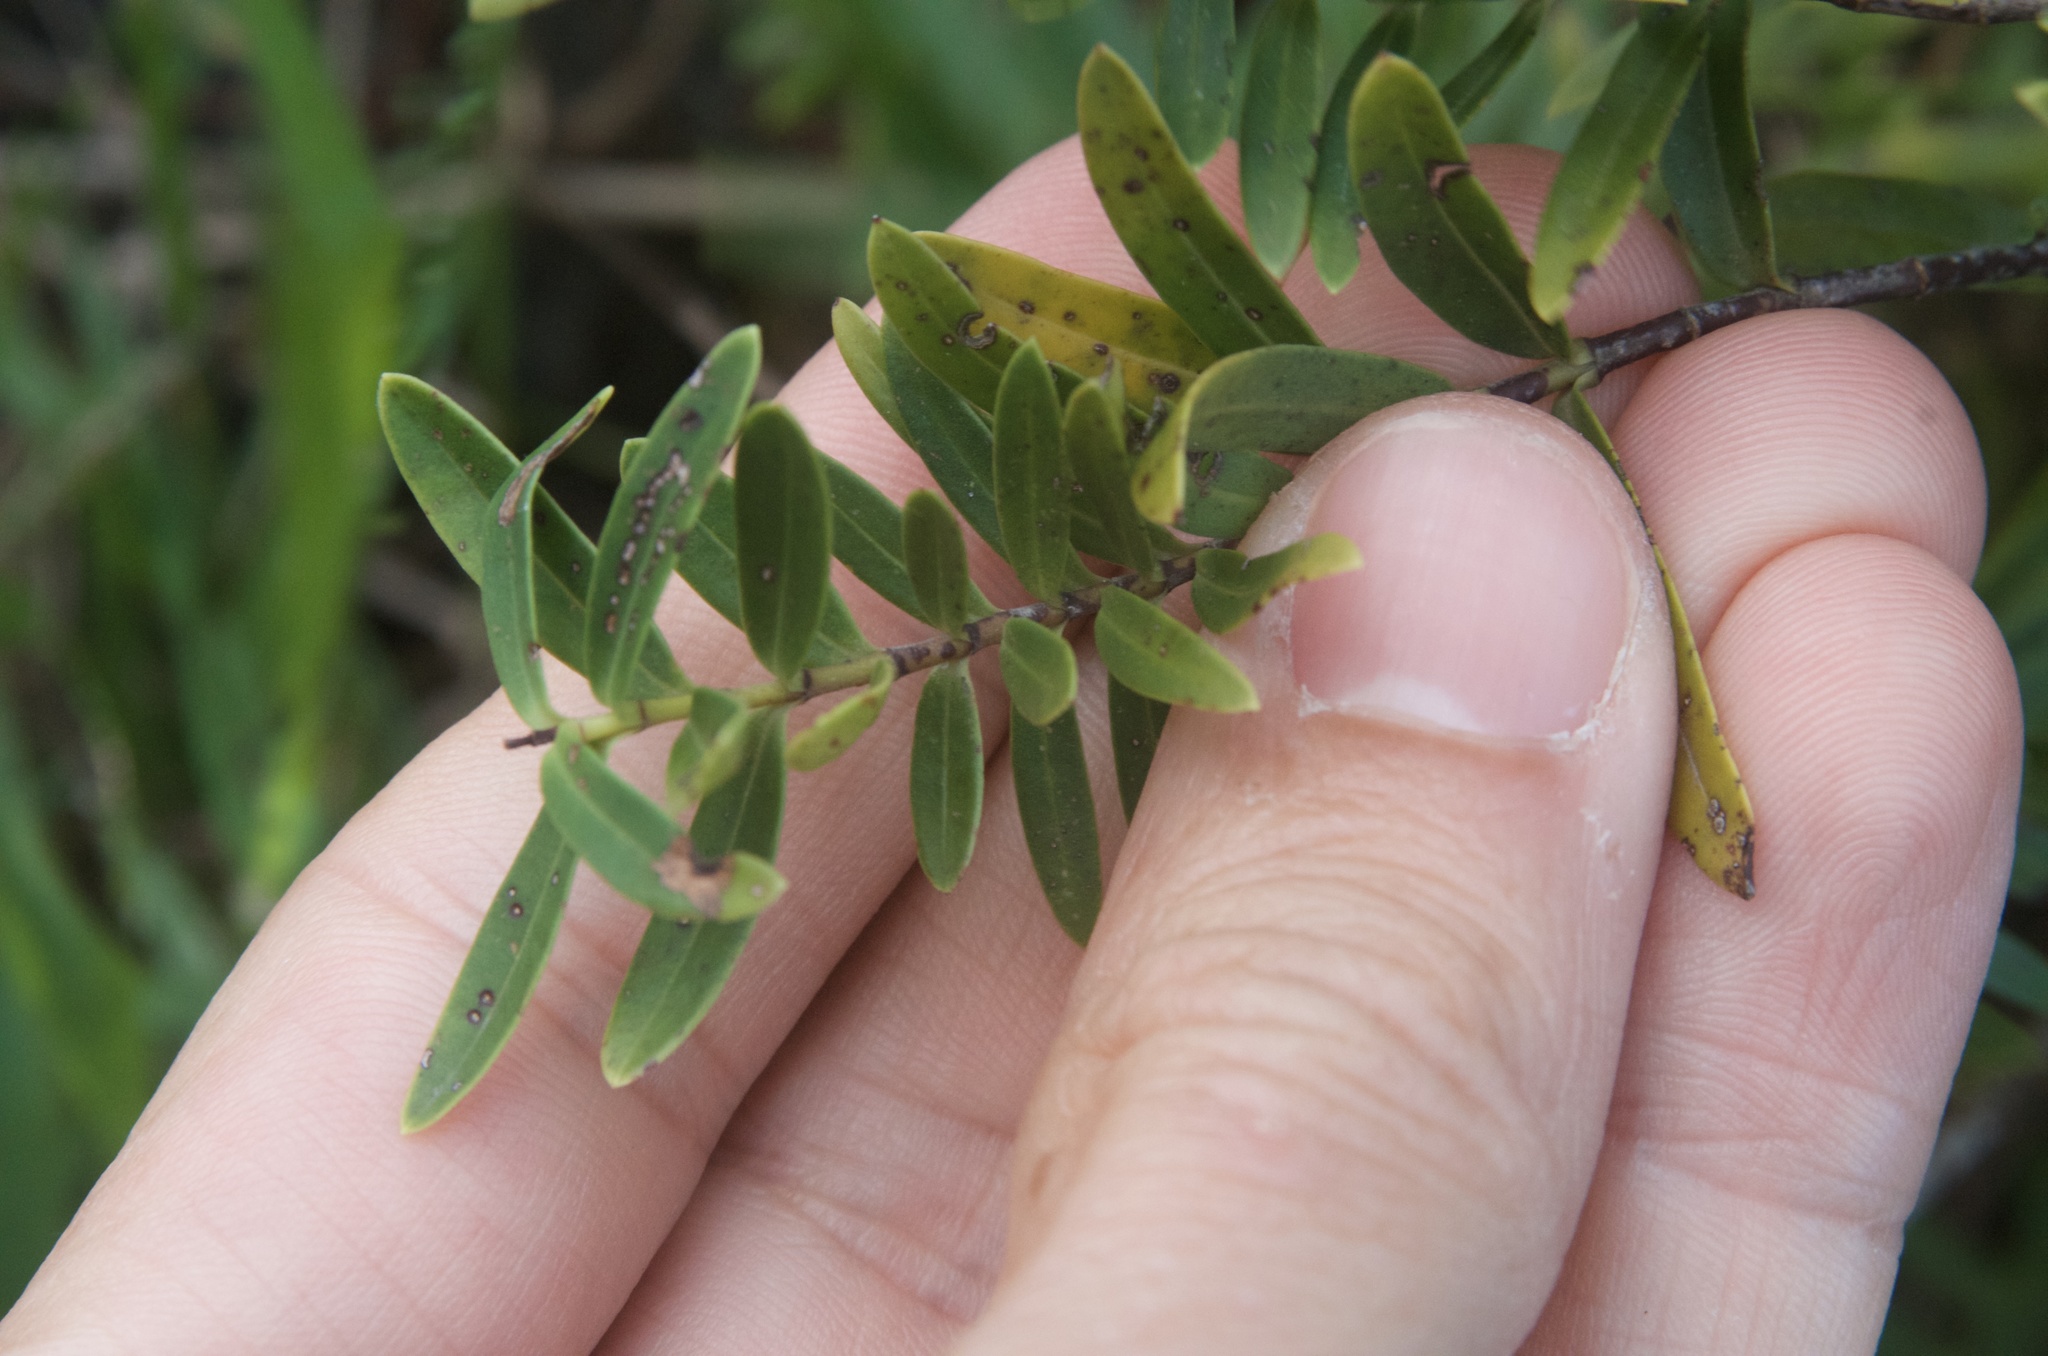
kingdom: Plantae
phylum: Tracheophyta
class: Magnoliopsida
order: Lamiales
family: Plantaginaceae
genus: Veronica
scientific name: Veronica strictissima
